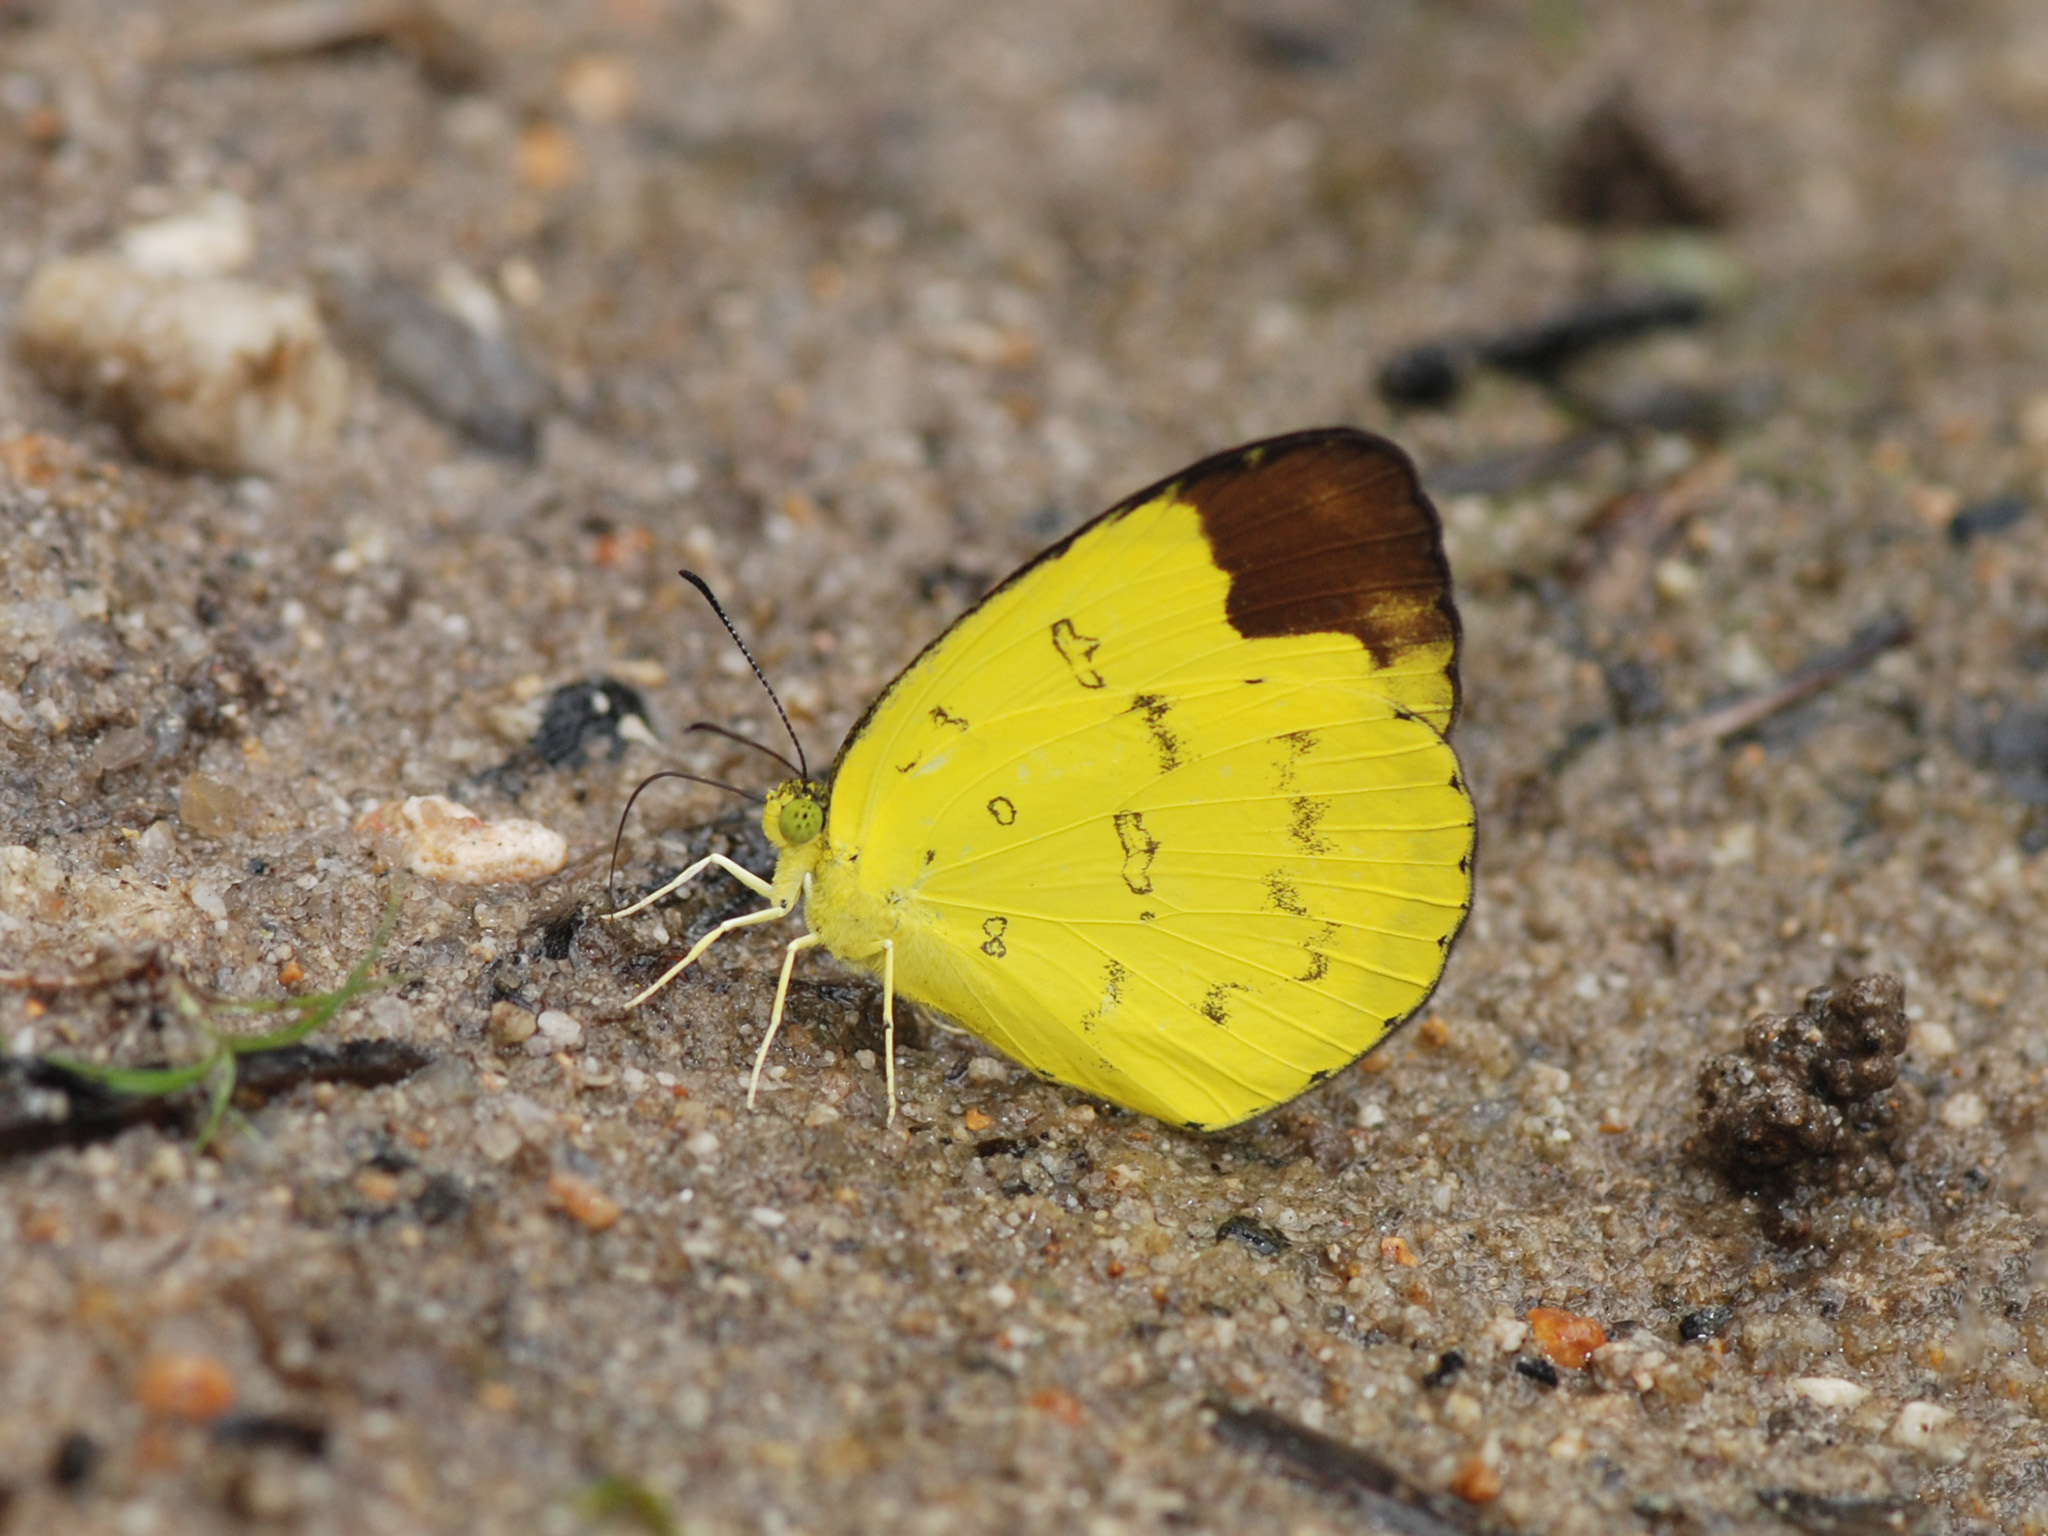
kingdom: Animalia
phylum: Arthropoda
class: Insecta
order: Lepidoptera
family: Pieridae
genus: Eurema
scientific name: Eurema sari
